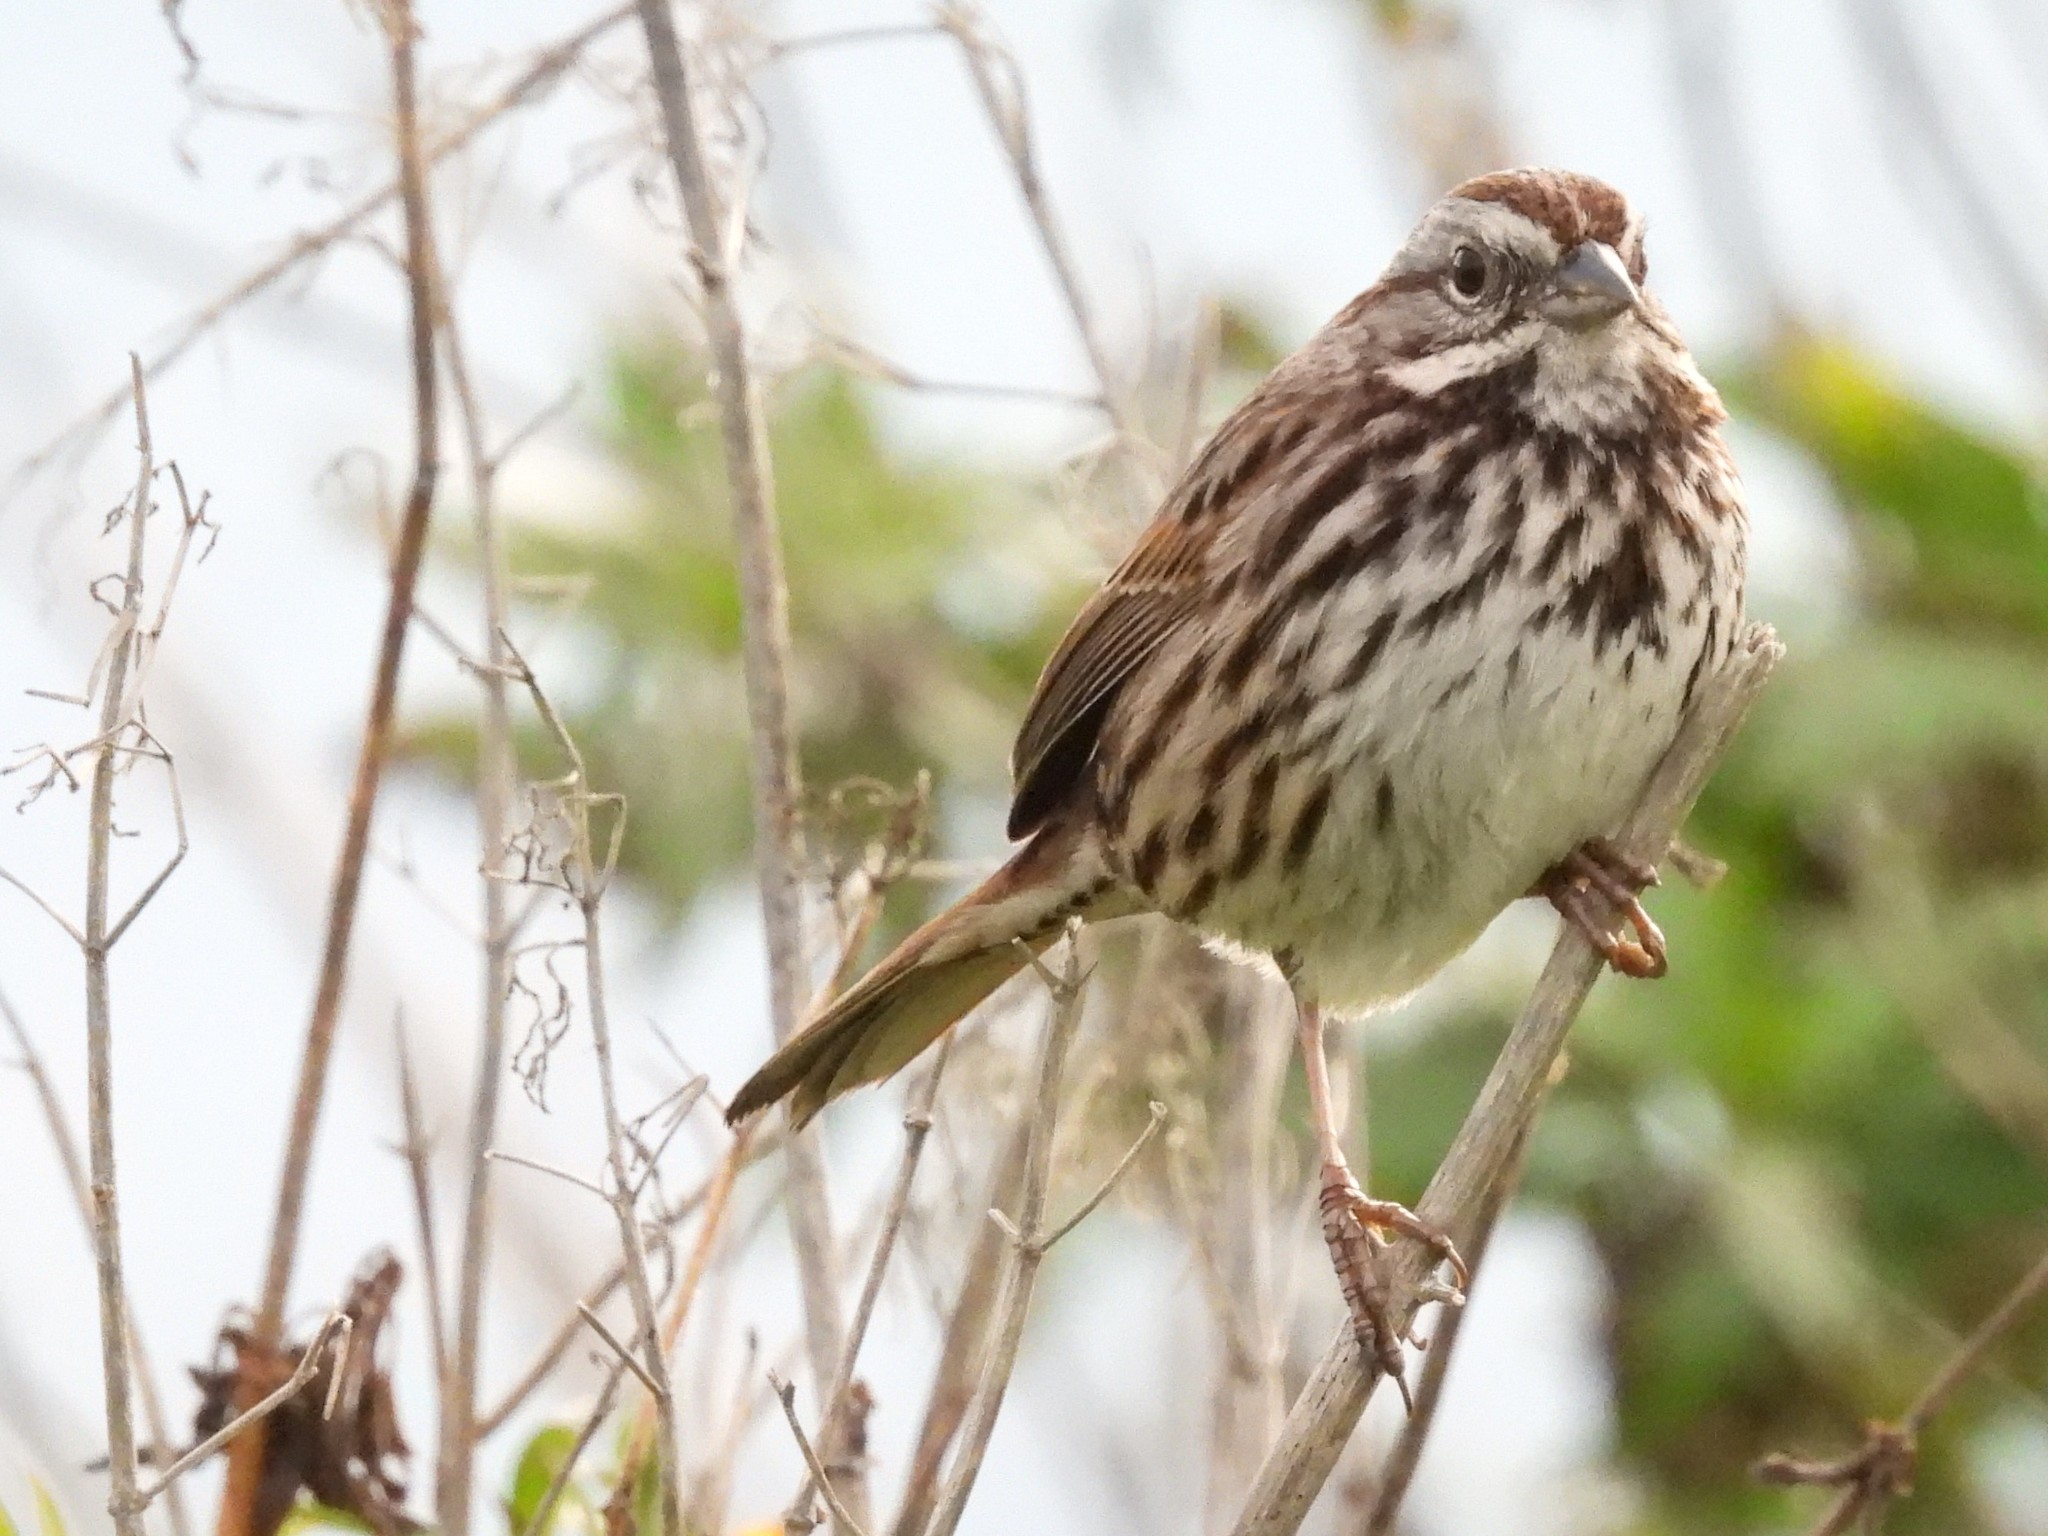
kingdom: Animalia
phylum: Chordata
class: Aves
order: Passeriformes
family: Passerellidae
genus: Melospiza
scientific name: Melospiza melodia
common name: Song sparrow
